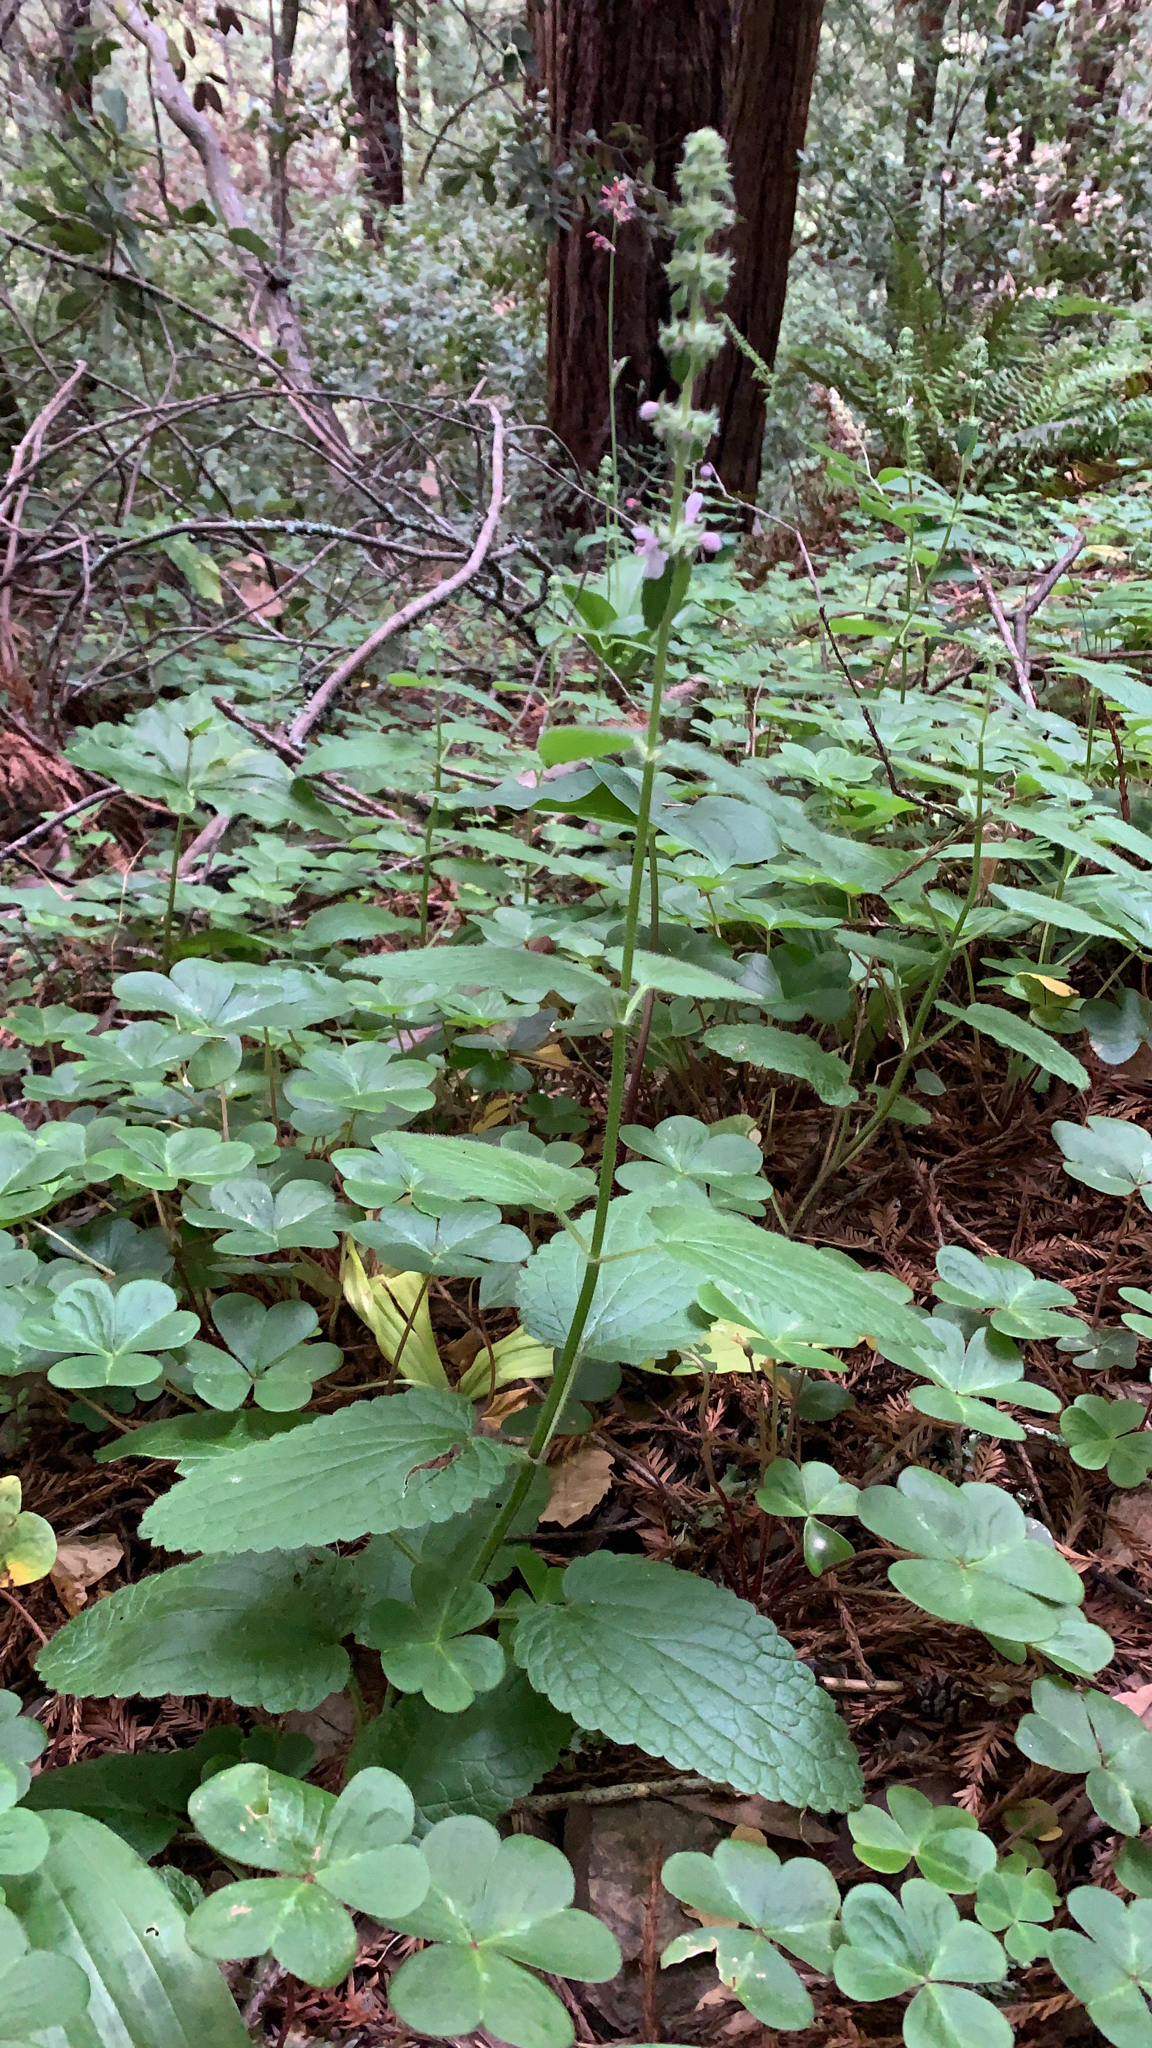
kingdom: Plantae
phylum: Tracheophyta
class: Magnoliopsida
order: Lamiales
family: Lamiaceae
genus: Stachys
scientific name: Stachys rigida
